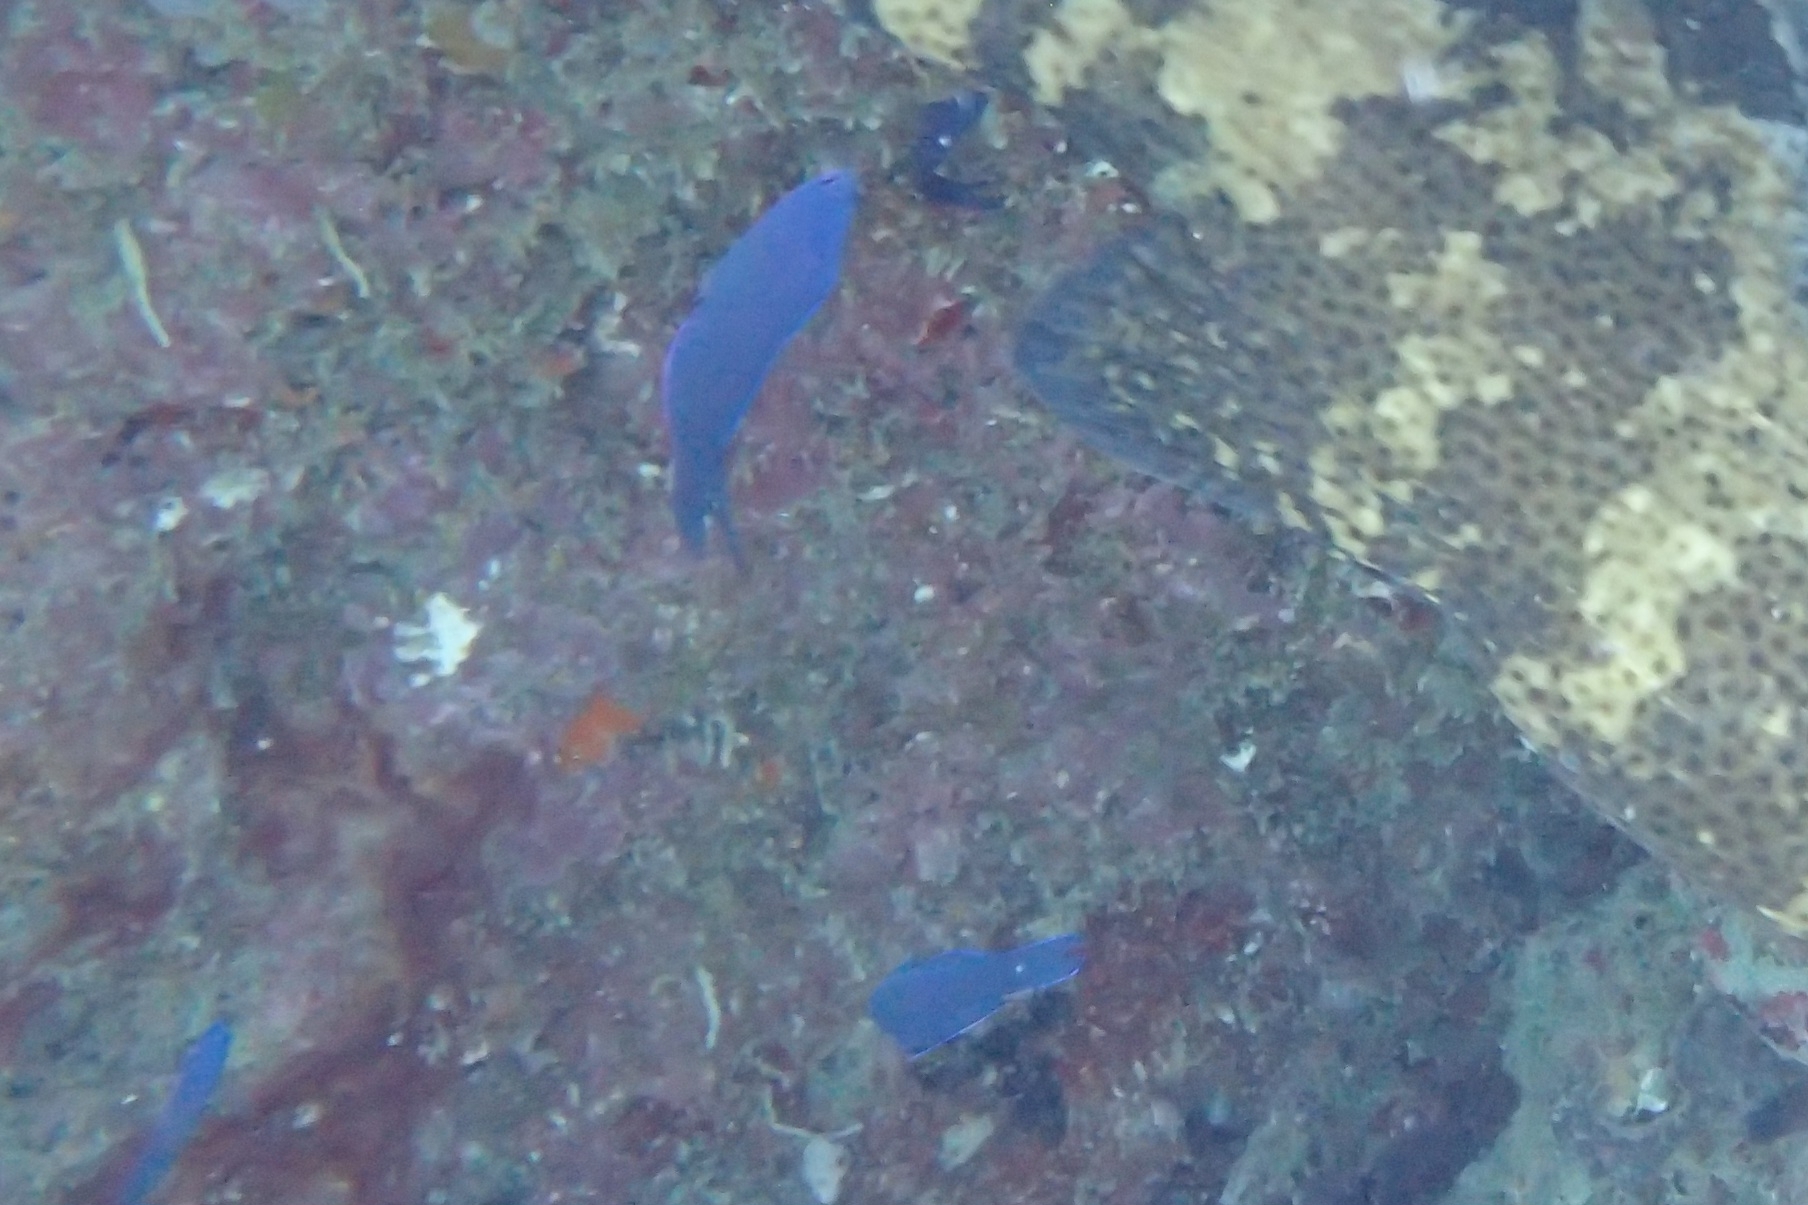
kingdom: Animalia
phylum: Chordata
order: Perciformes
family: Plesiopidae
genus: Assessor
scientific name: Assessor macneilli
